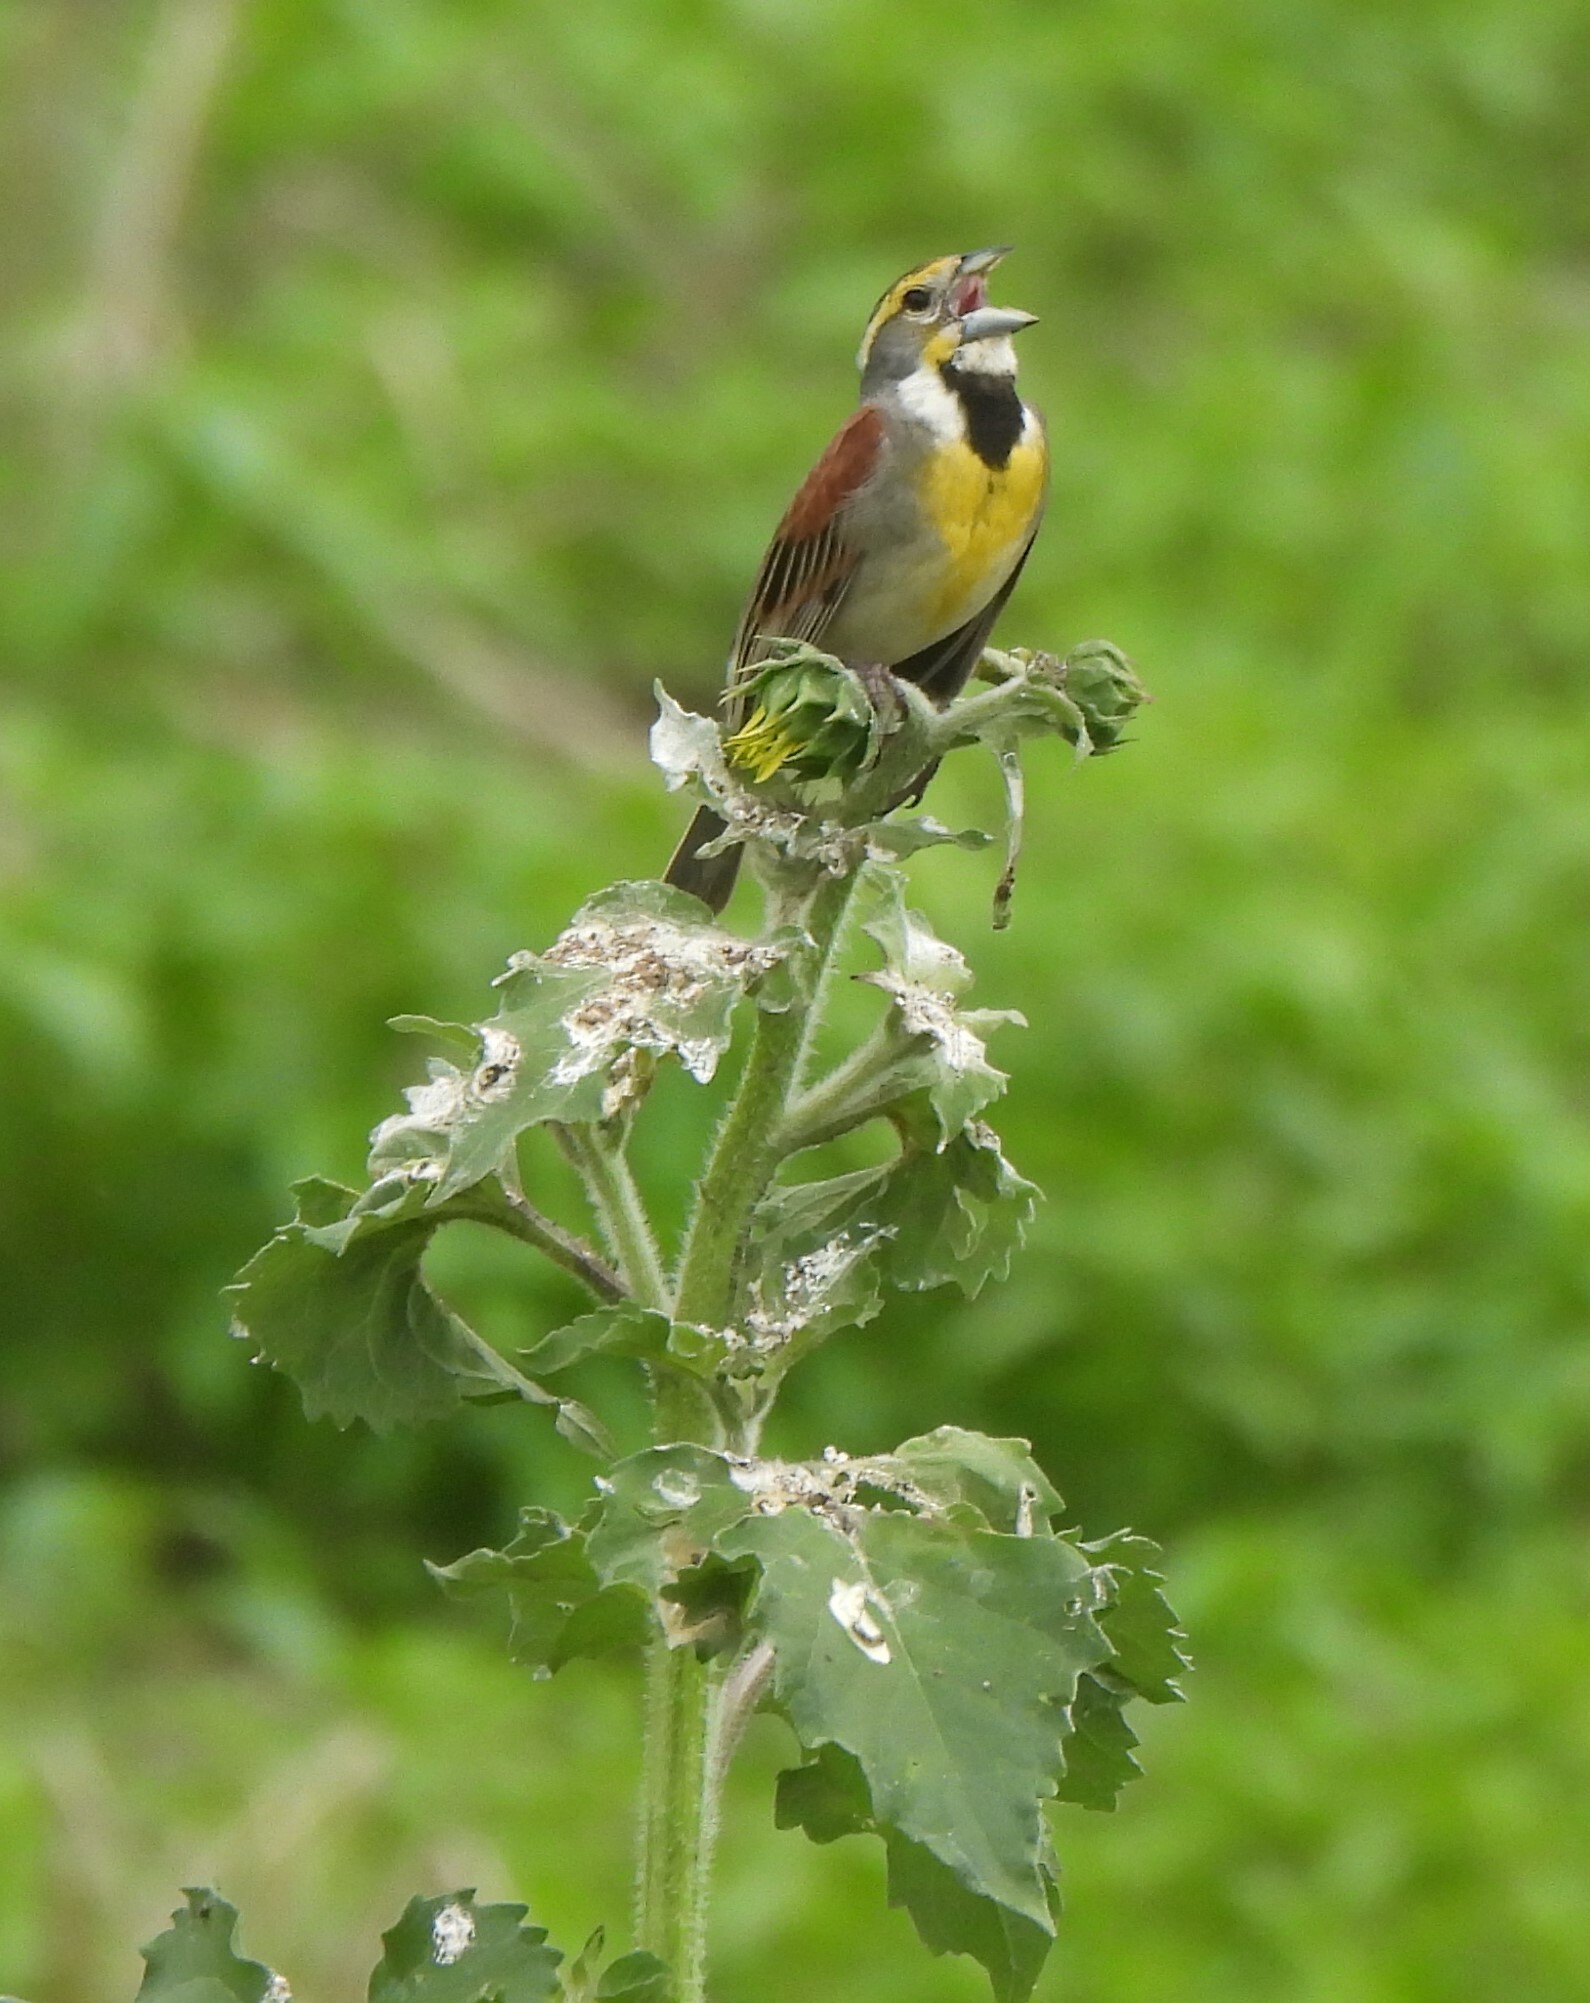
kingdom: Animalia
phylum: Chordata
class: Aves
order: Passeriformes
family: Cardinalidae
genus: Spiza
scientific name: Spiza americana
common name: Dickcissel
